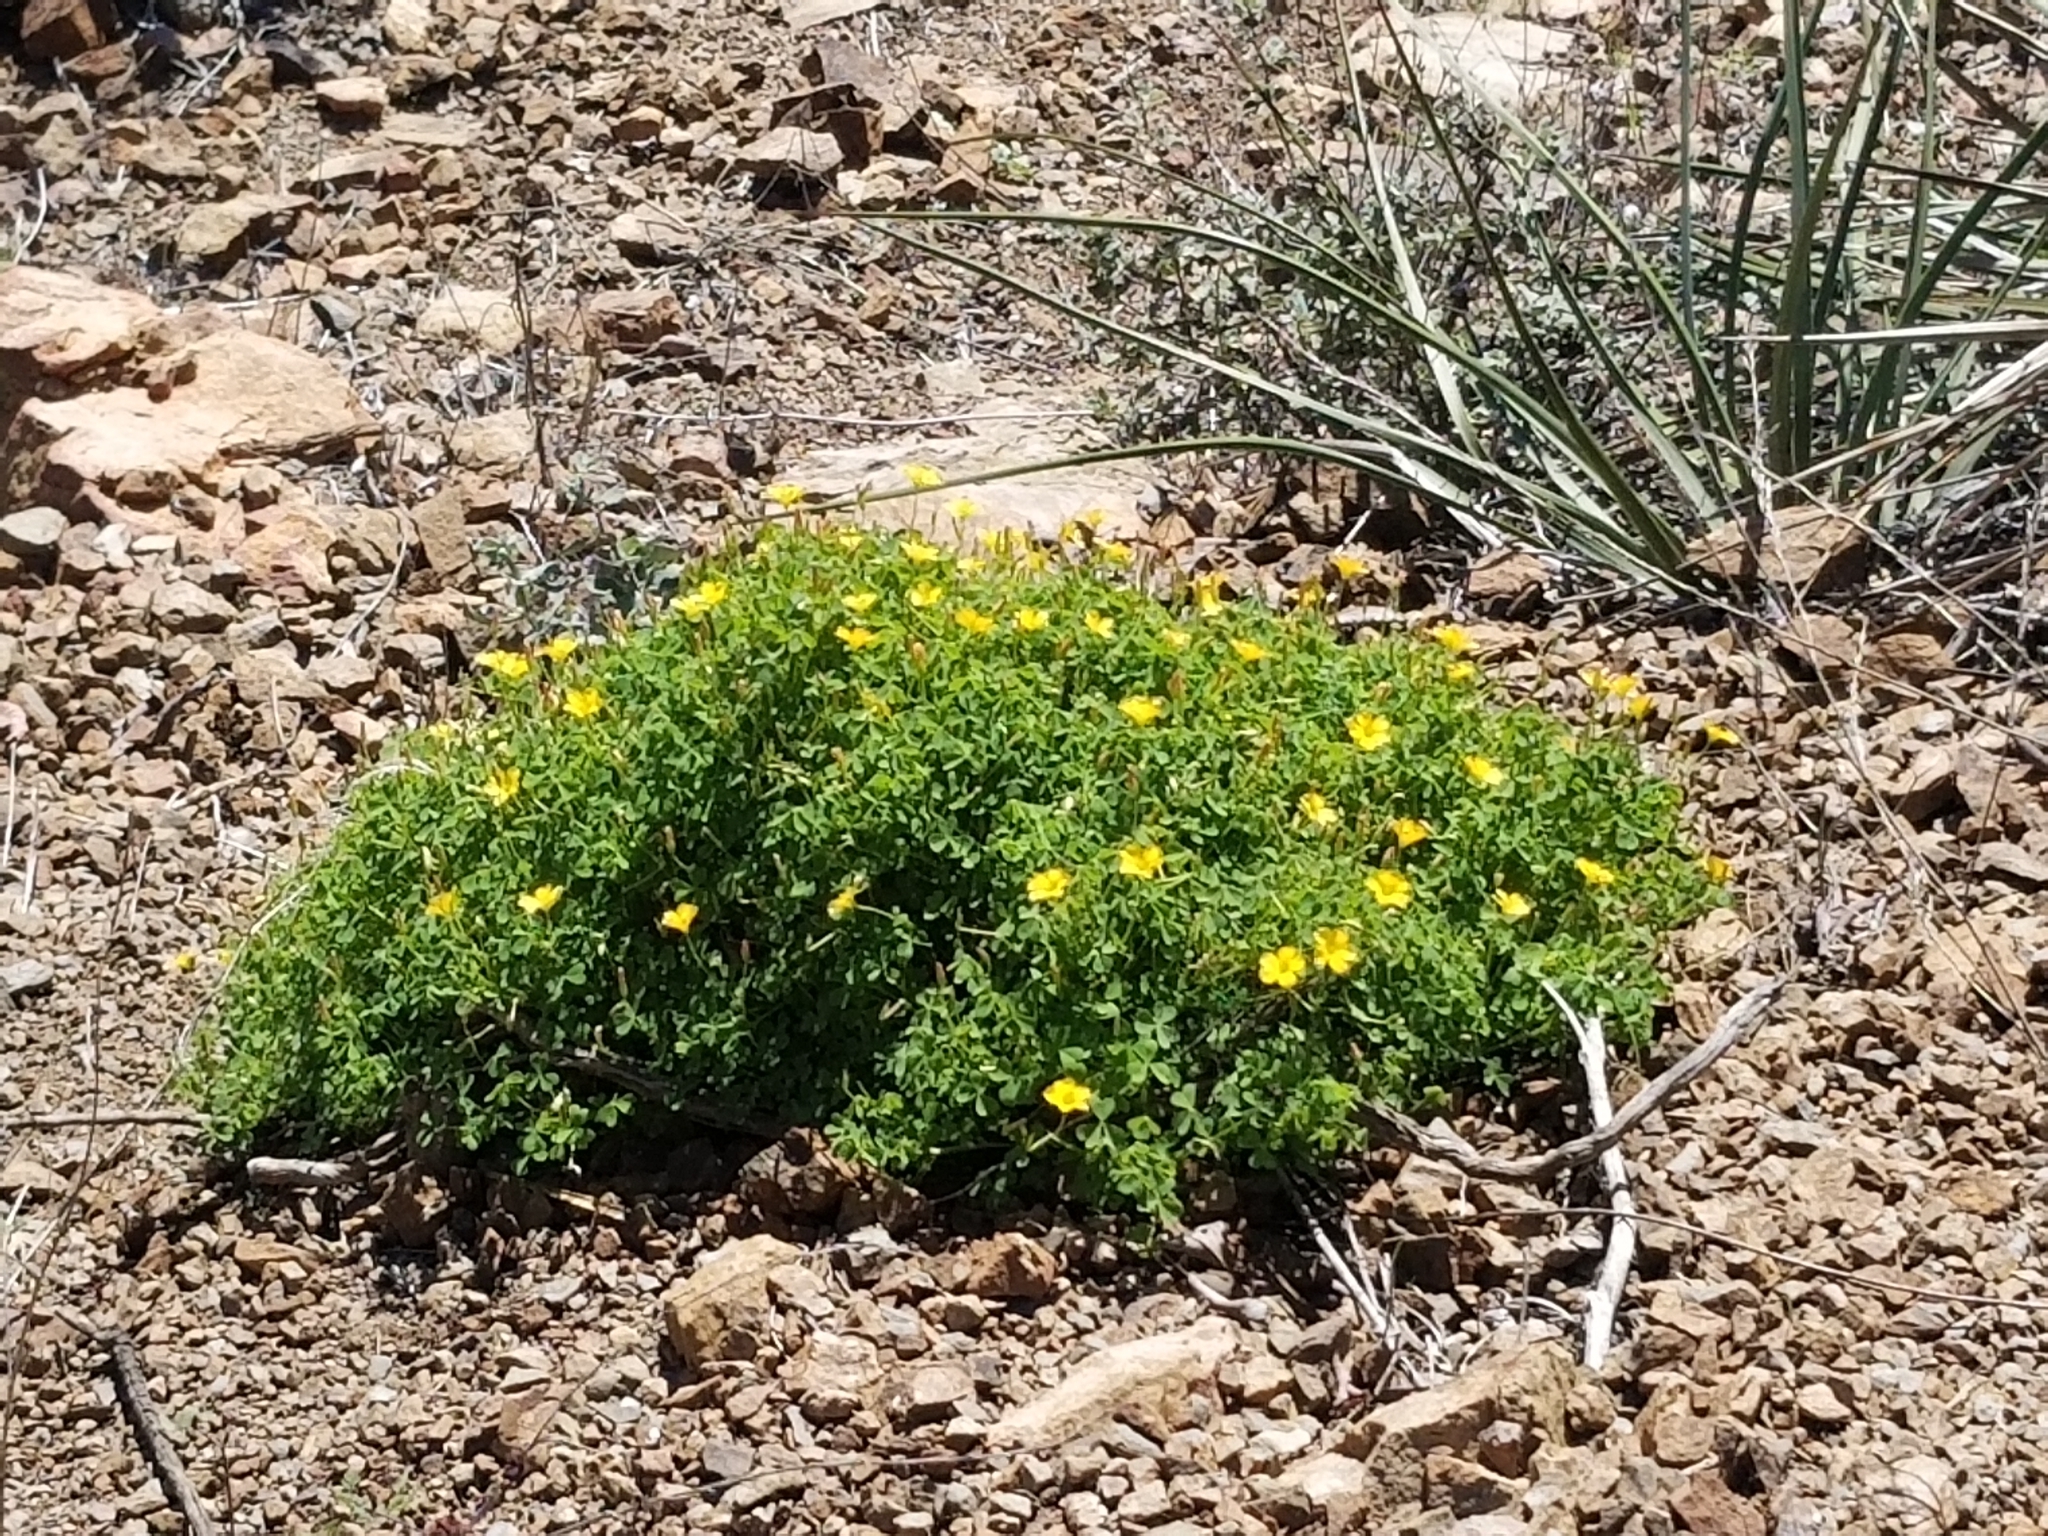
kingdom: Plantae
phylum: Tracheophyta
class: Magnoliopsida
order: Oxalidales
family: Oxalidaceae
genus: Oxalis
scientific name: Oxalis californica
